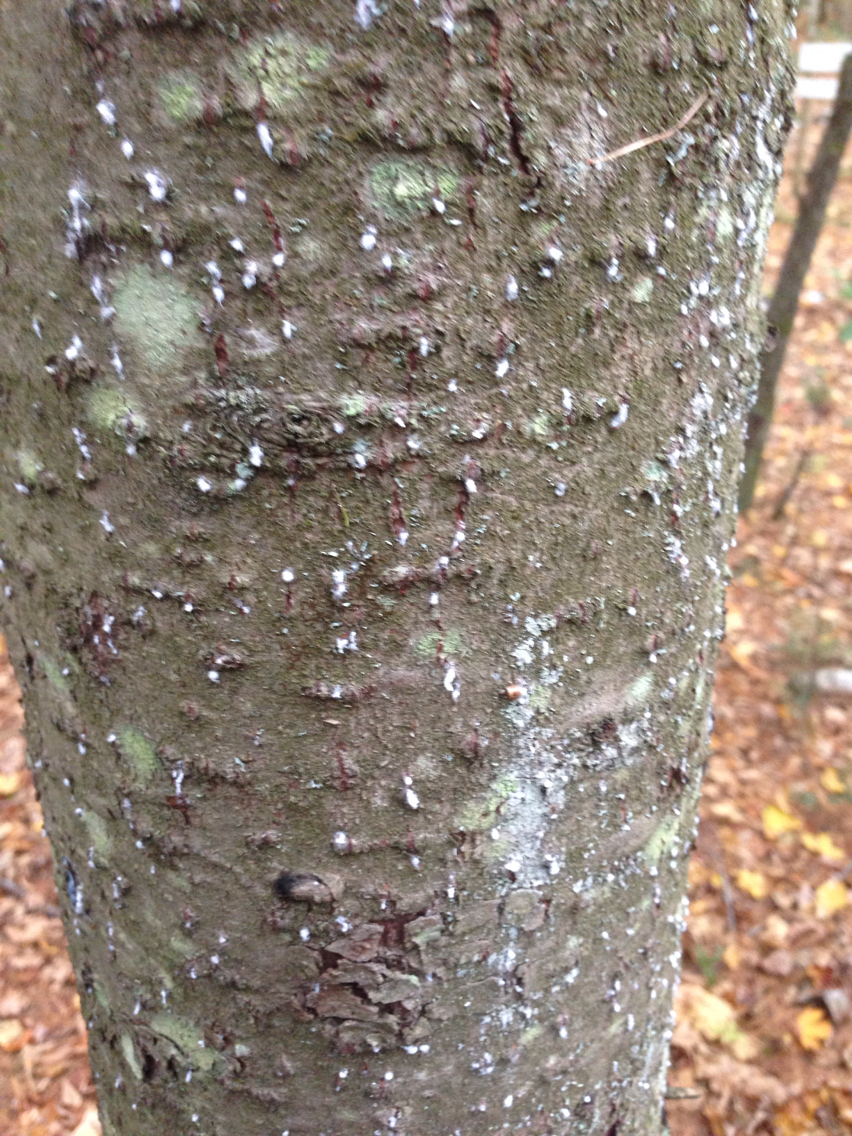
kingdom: Animalia
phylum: Arthropoda
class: Insecta
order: Hemiptera
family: Adelgidae
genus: Adelges
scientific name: Adelges piceae
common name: Balsam woolly adelgid
